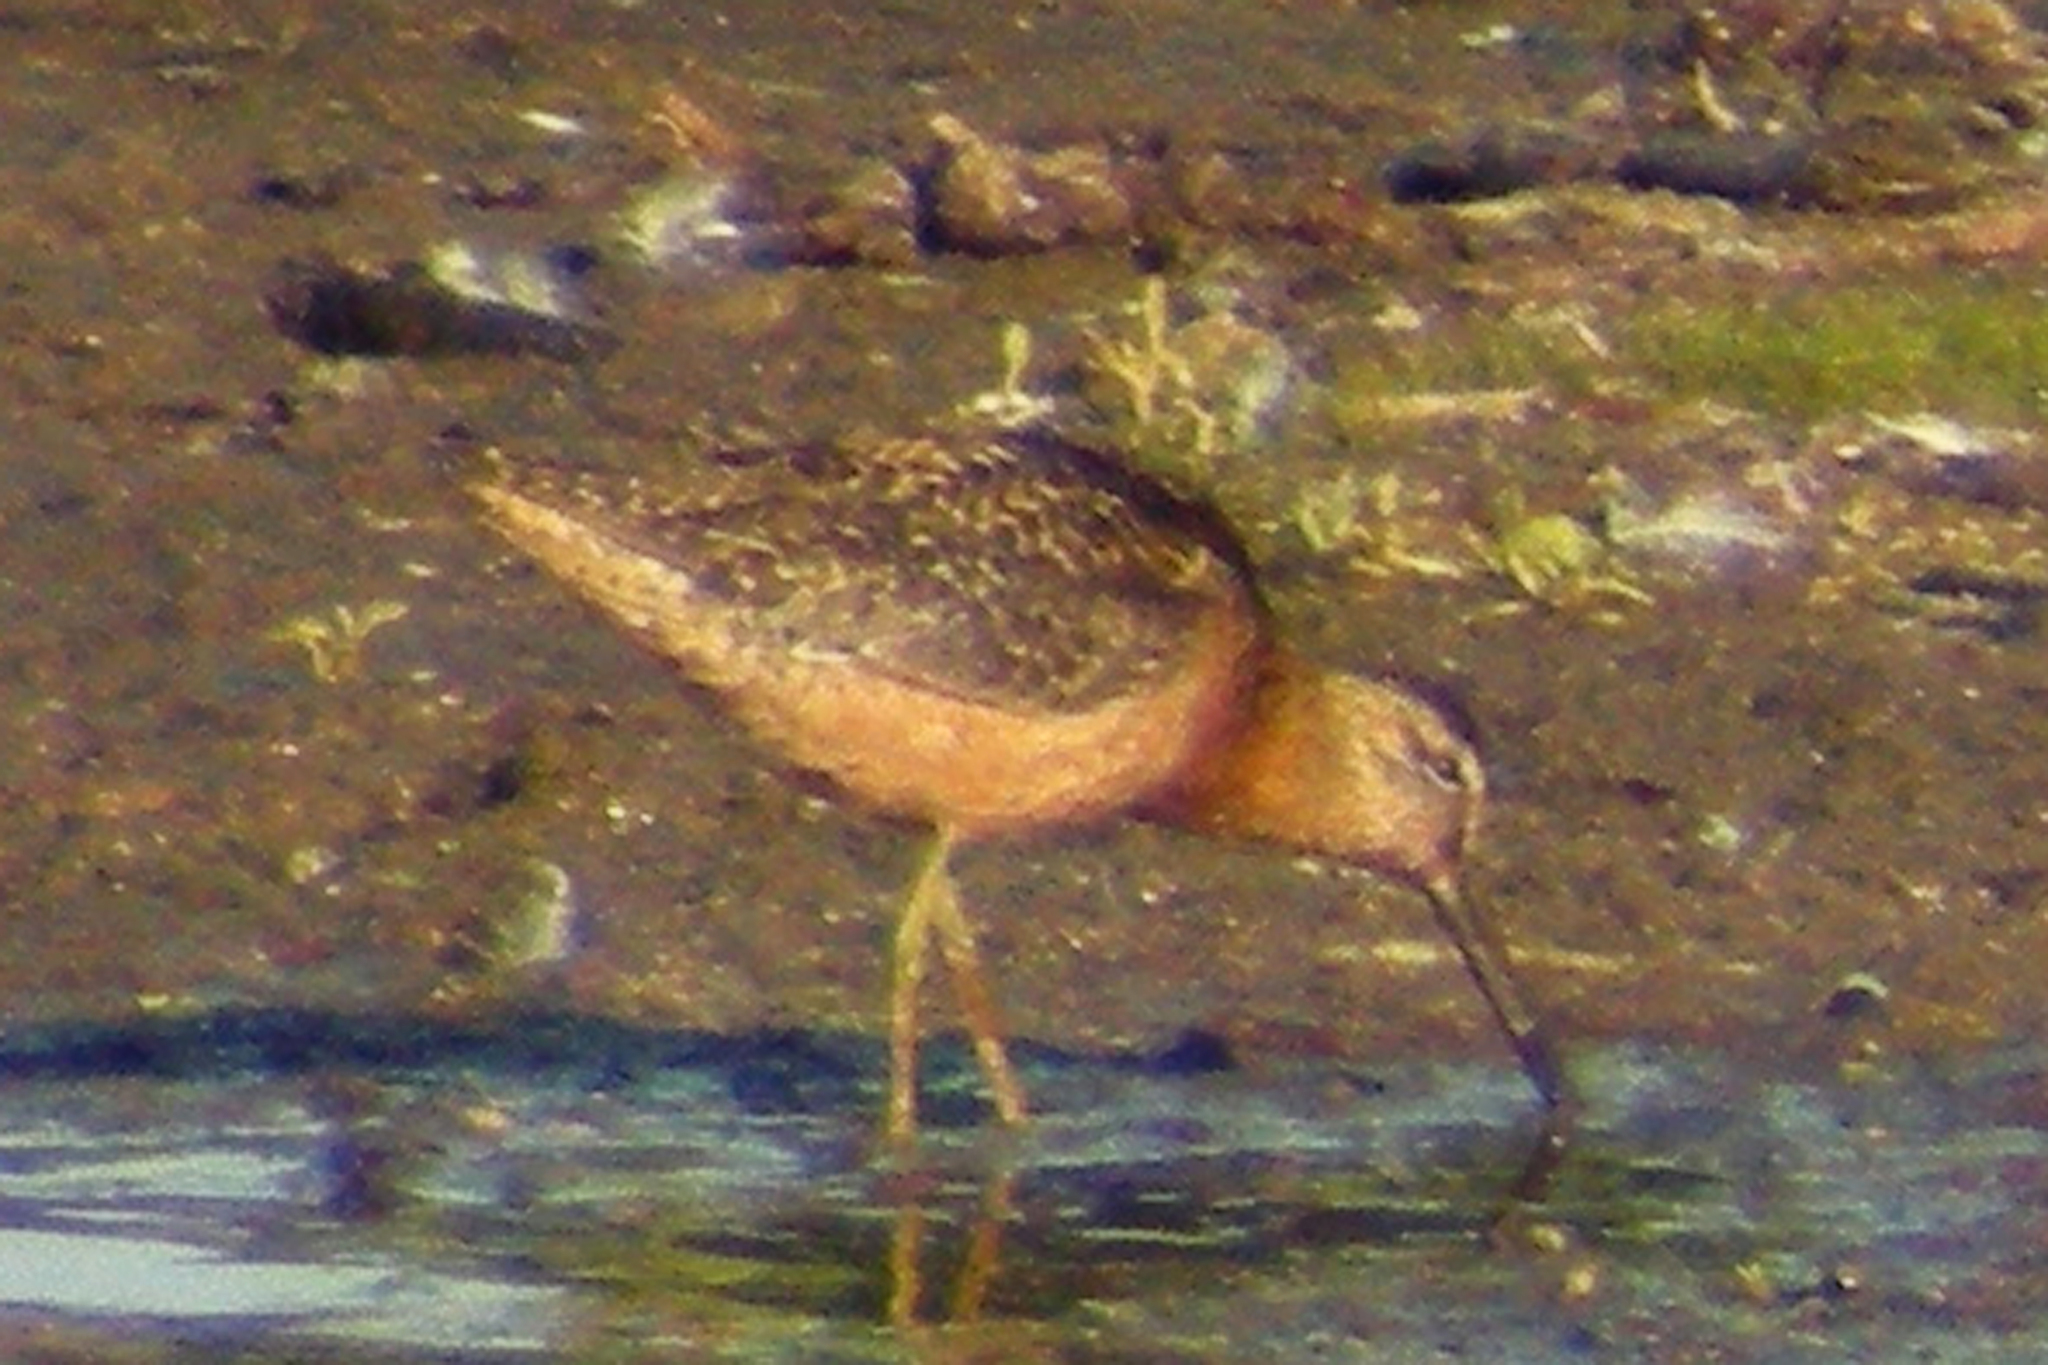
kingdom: Animalia
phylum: Chordata
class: Aves
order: Charadriiformes
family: Scolopacidae
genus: Limnodromus
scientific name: Limnodromus
